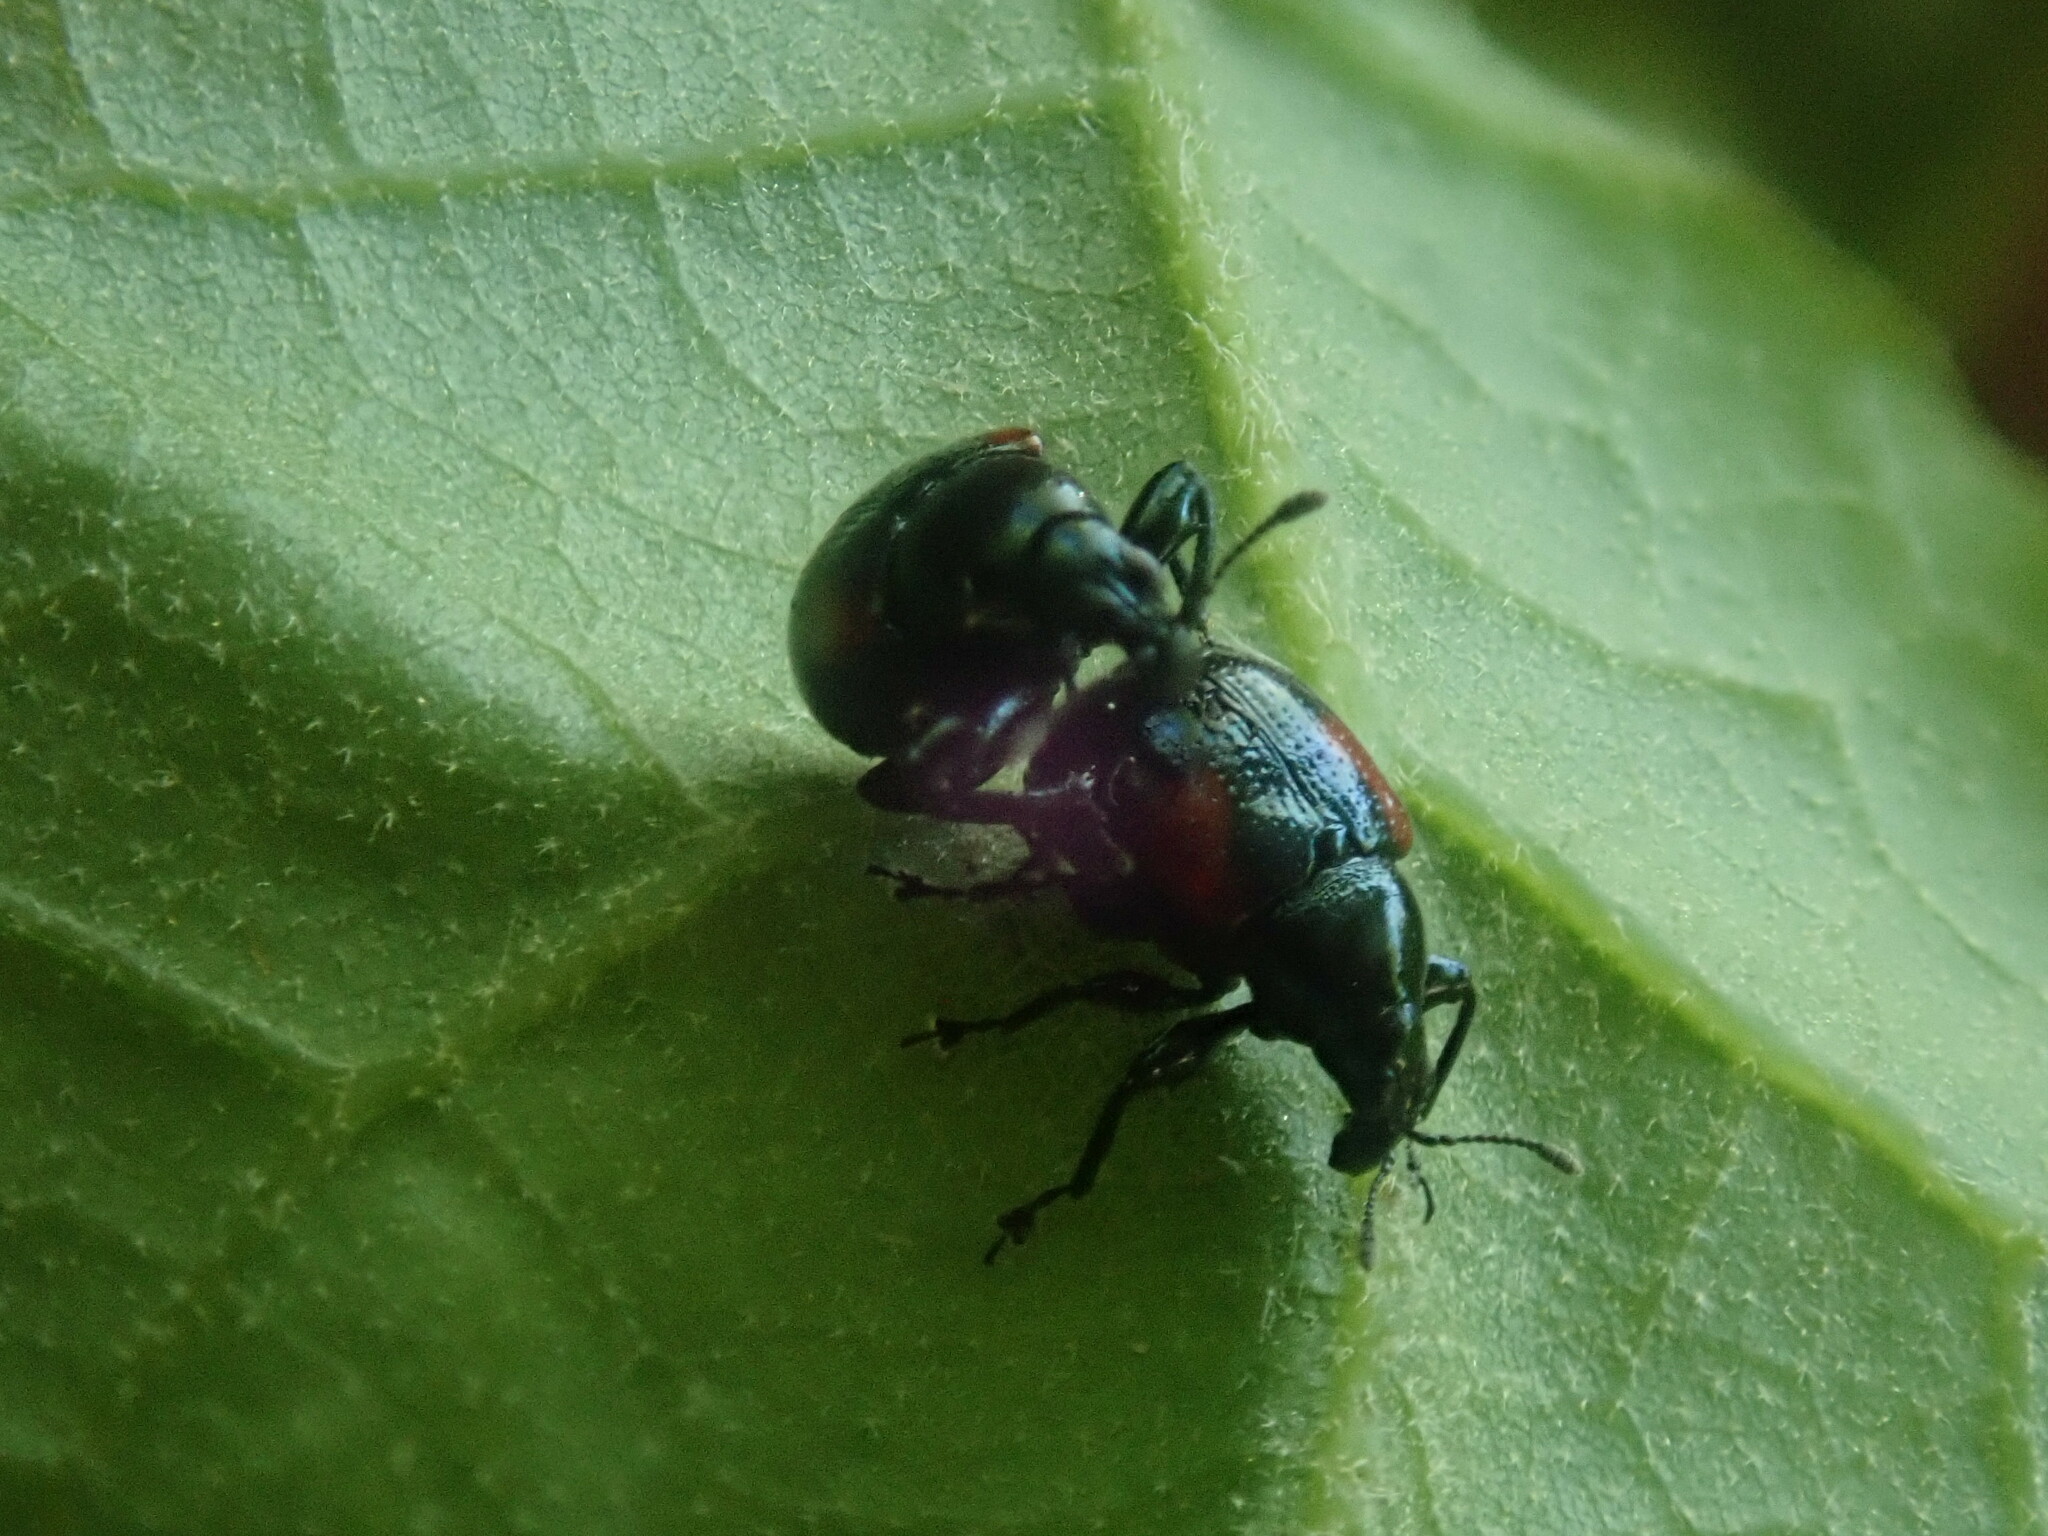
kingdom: Animalia
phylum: Arthropoda
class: Insecta
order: Coleoptera
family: Attelabidae
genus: Attelabus
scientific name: Attelabus bipustulatus
